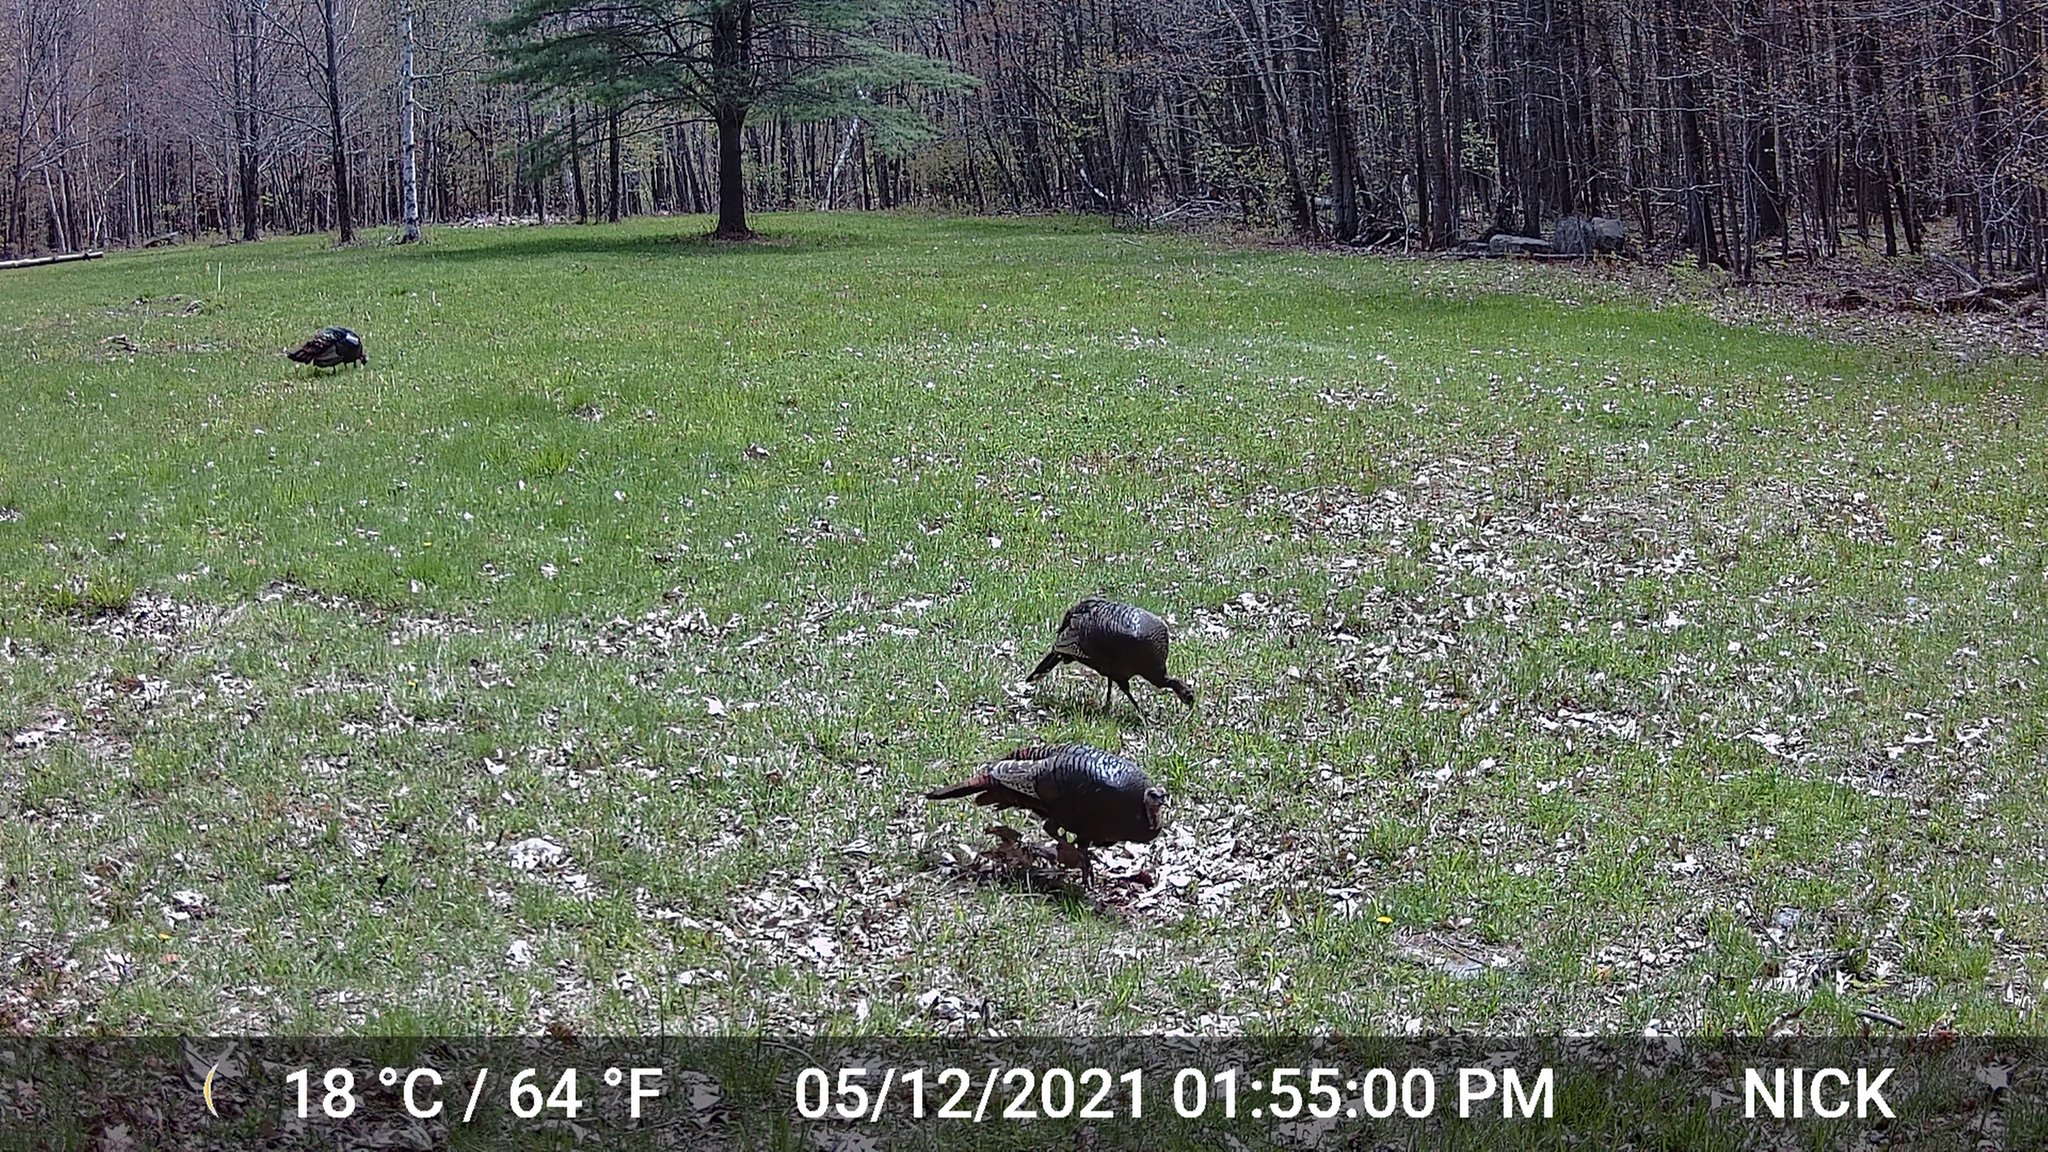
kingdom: Animalia
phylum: Chordata
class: Aves
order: Galliformes
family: Phasianidae
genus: Meleagris
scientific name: Meleagris gallopavo
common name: Wild turkey
